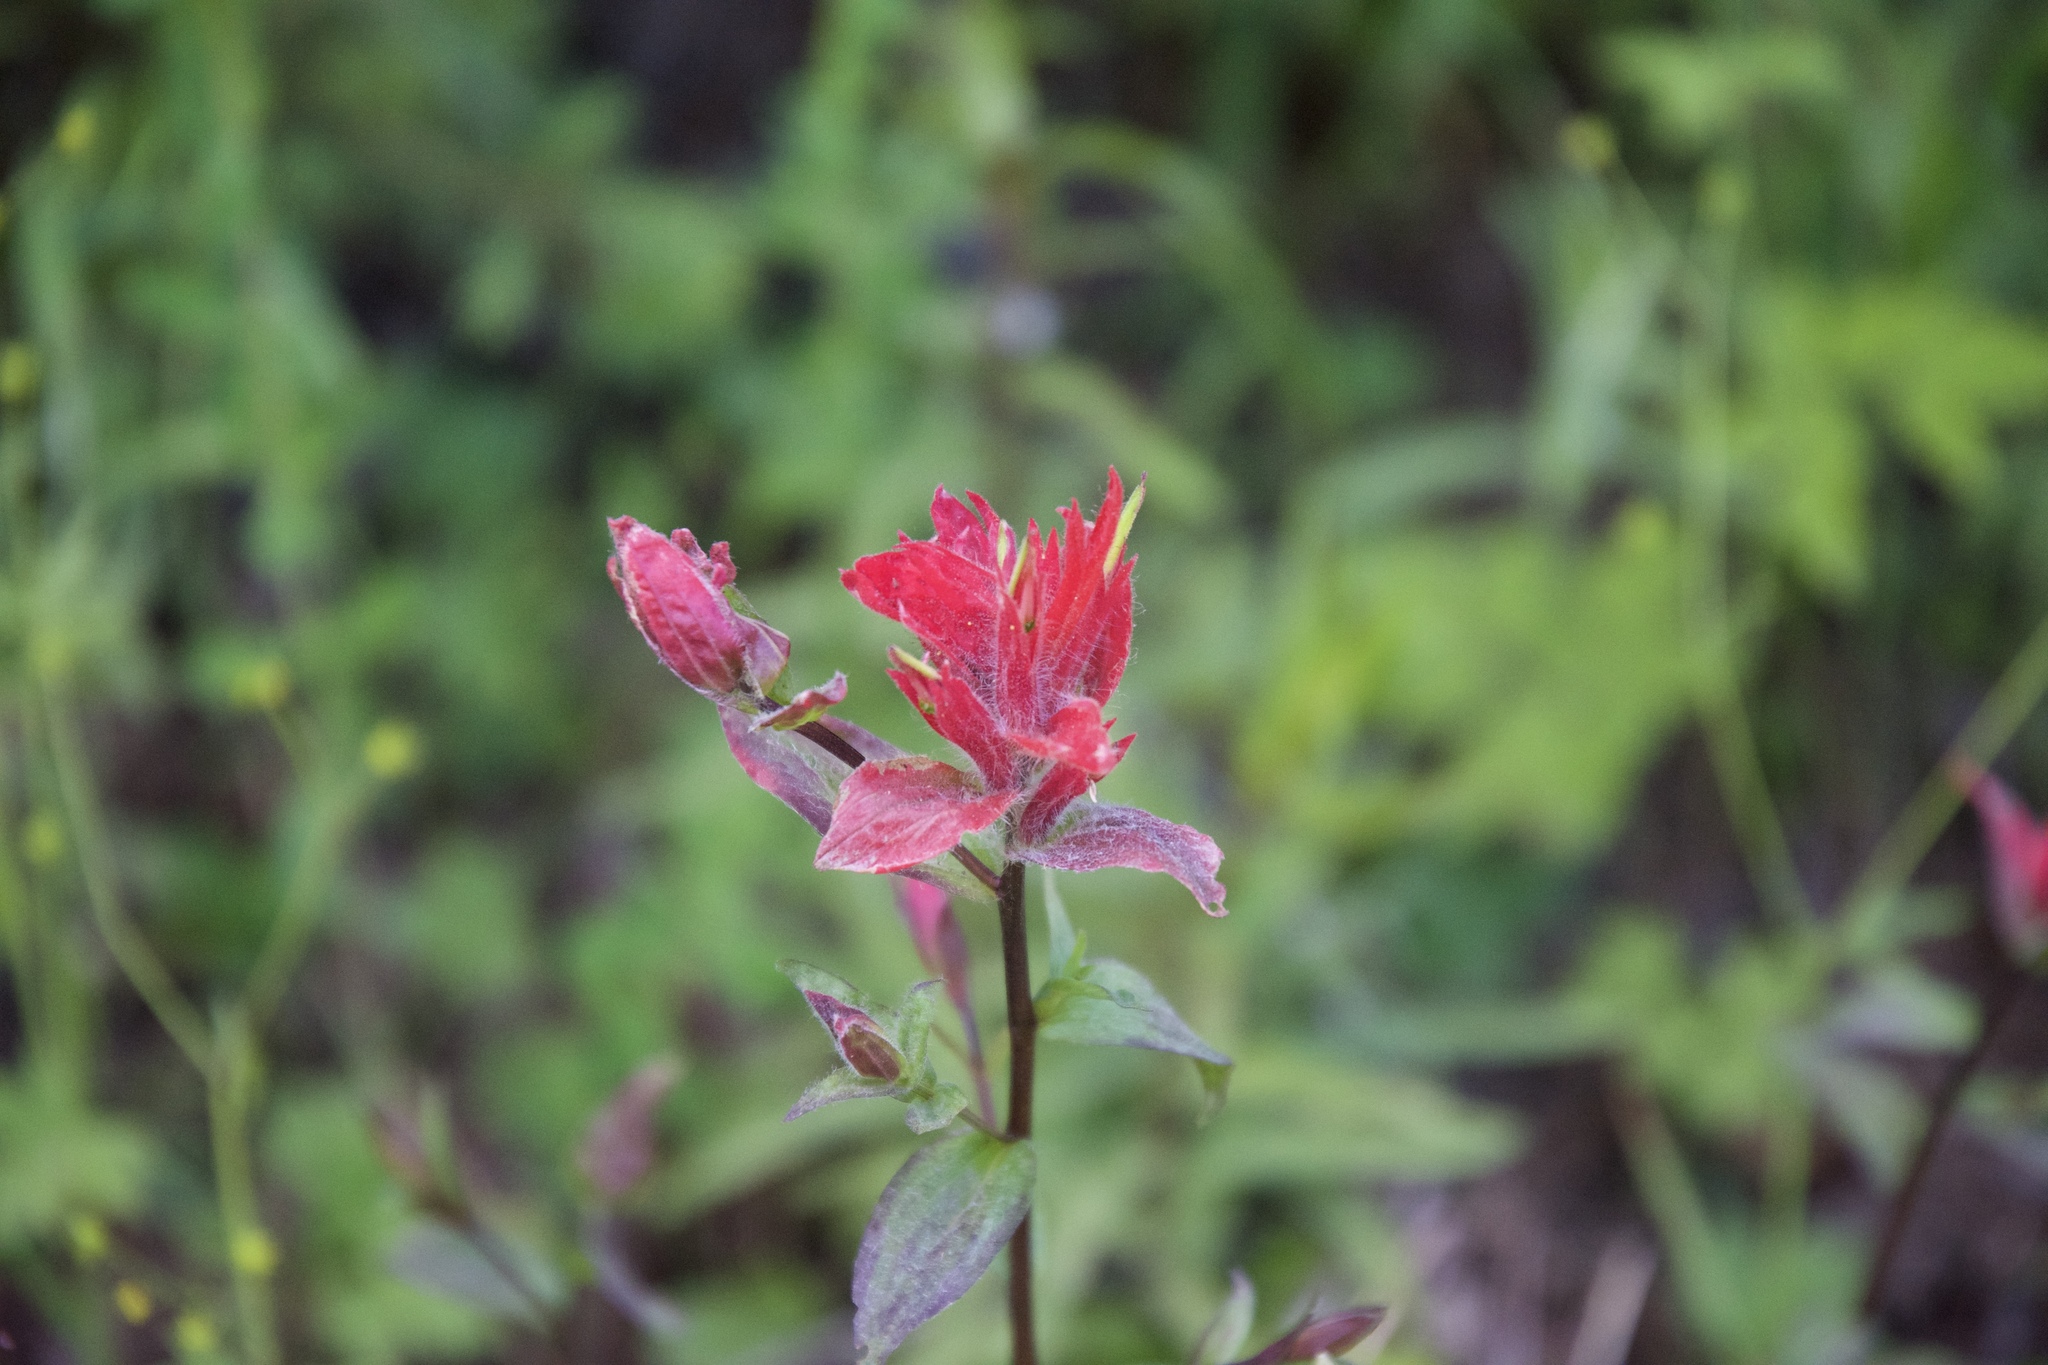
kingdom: Plantae
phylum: Tracheophyta
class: Magnoliopsida
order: Lamiales
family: Orobanchaceae
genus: Castilleja
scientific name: Castilleja miniata
